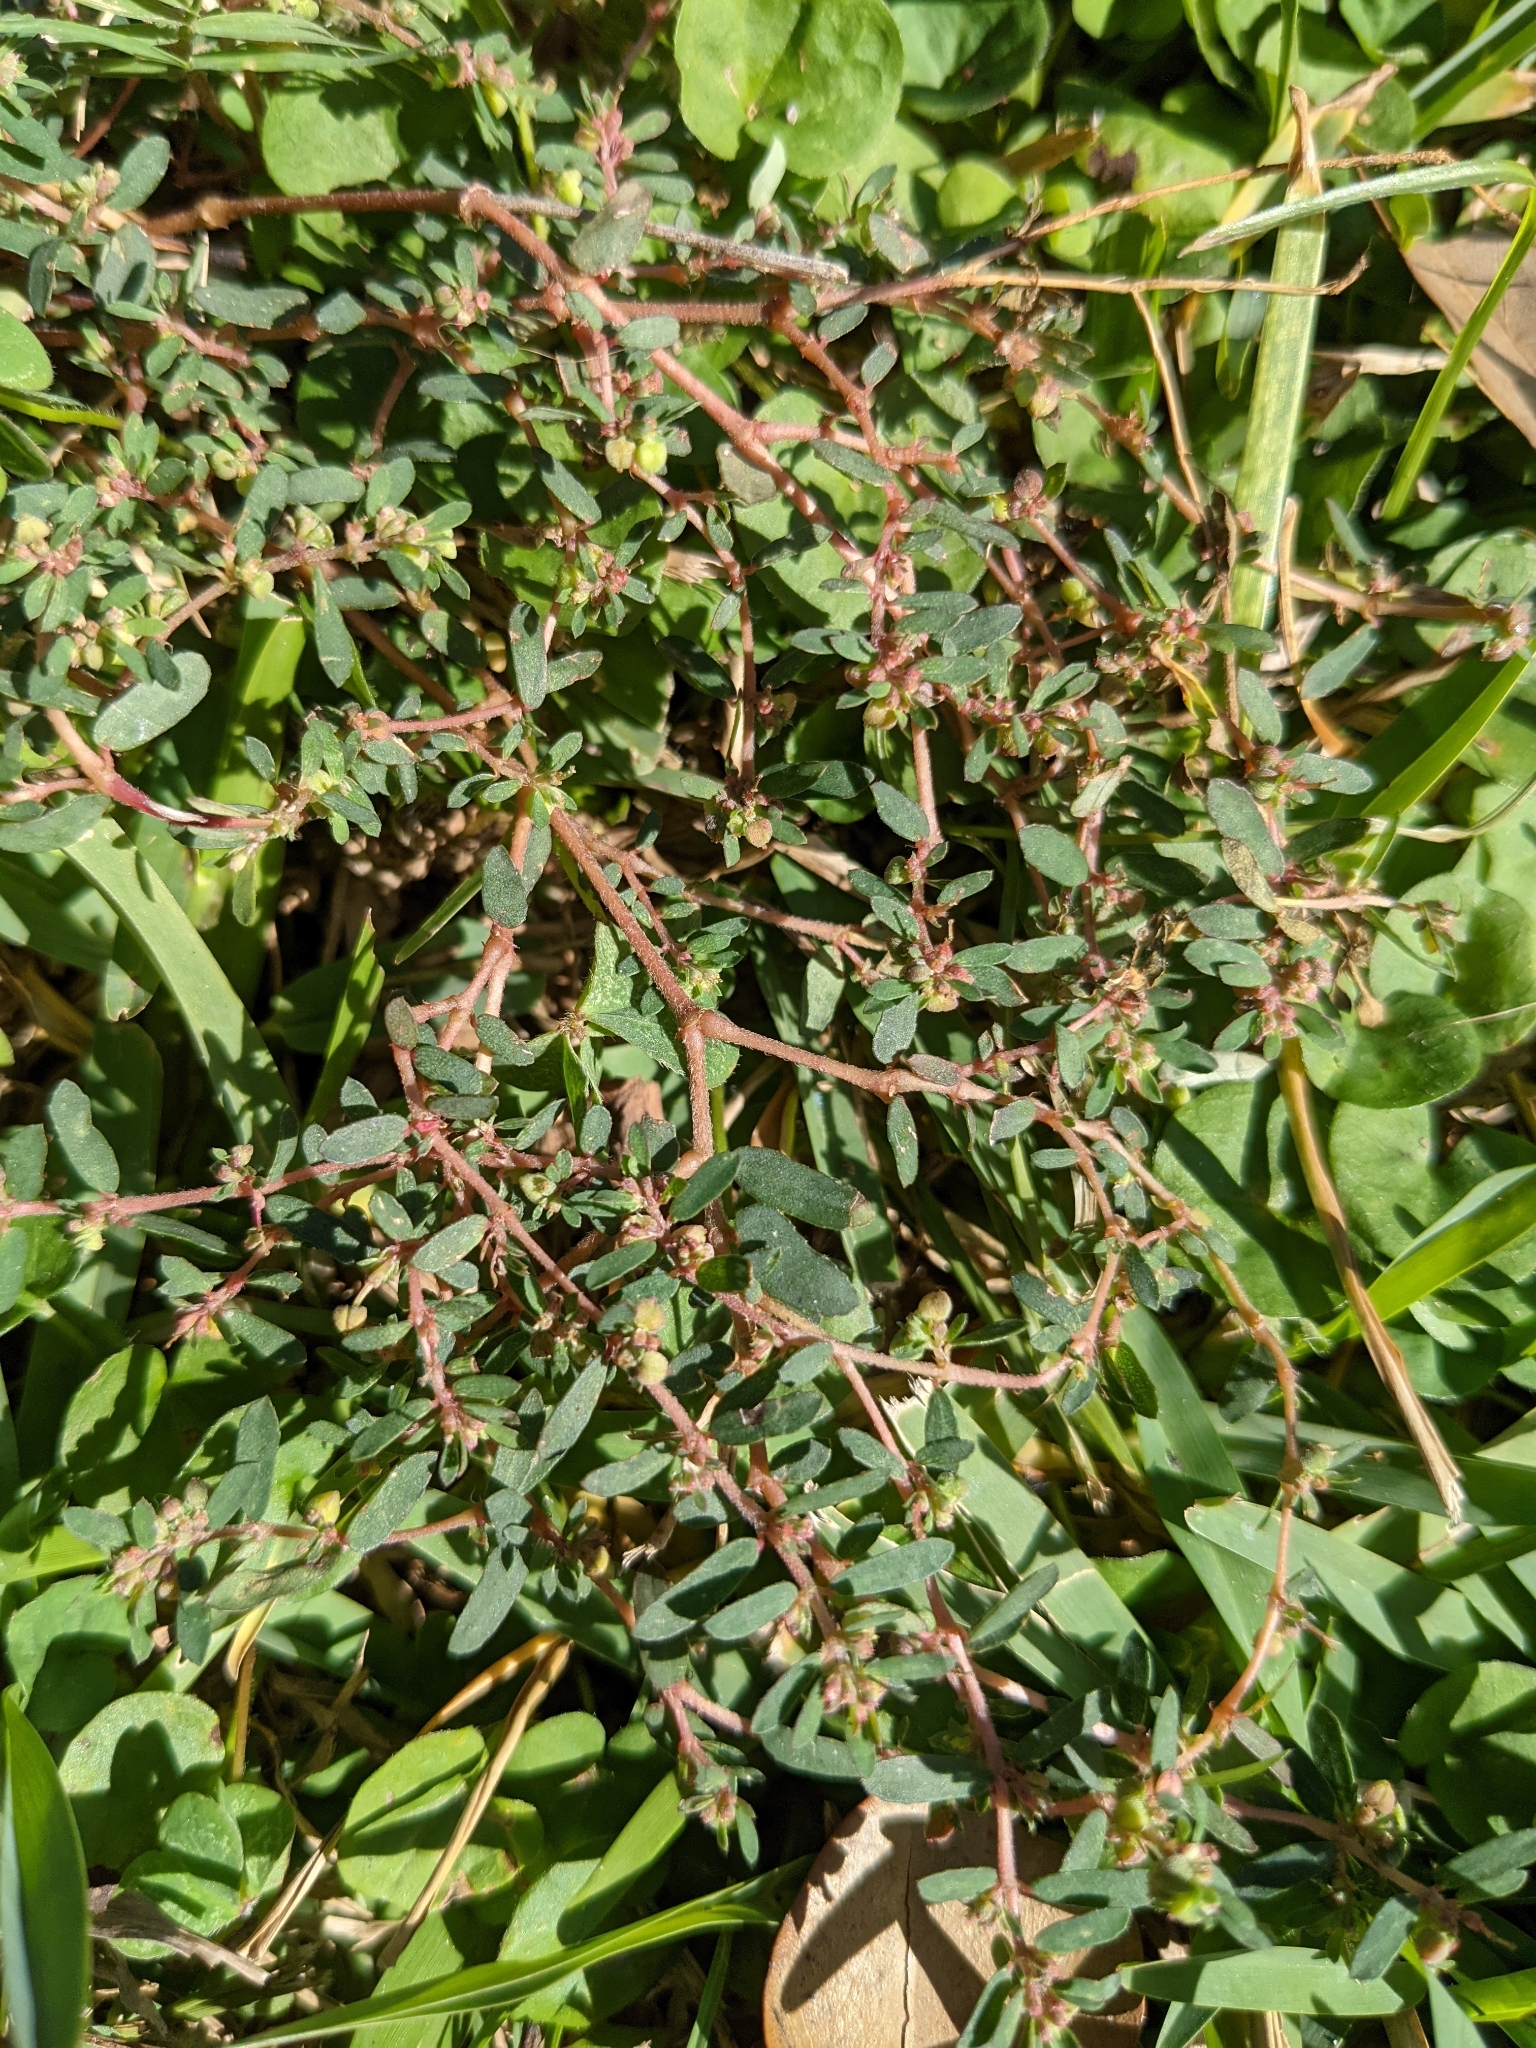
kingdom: Plantae
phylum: Tracheophyta
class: Magnoliopsida
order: Malpighiales
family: Euphorbiaceae
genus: Euphorbia
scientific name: Euphorbia maculata
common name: Spotted spurge
